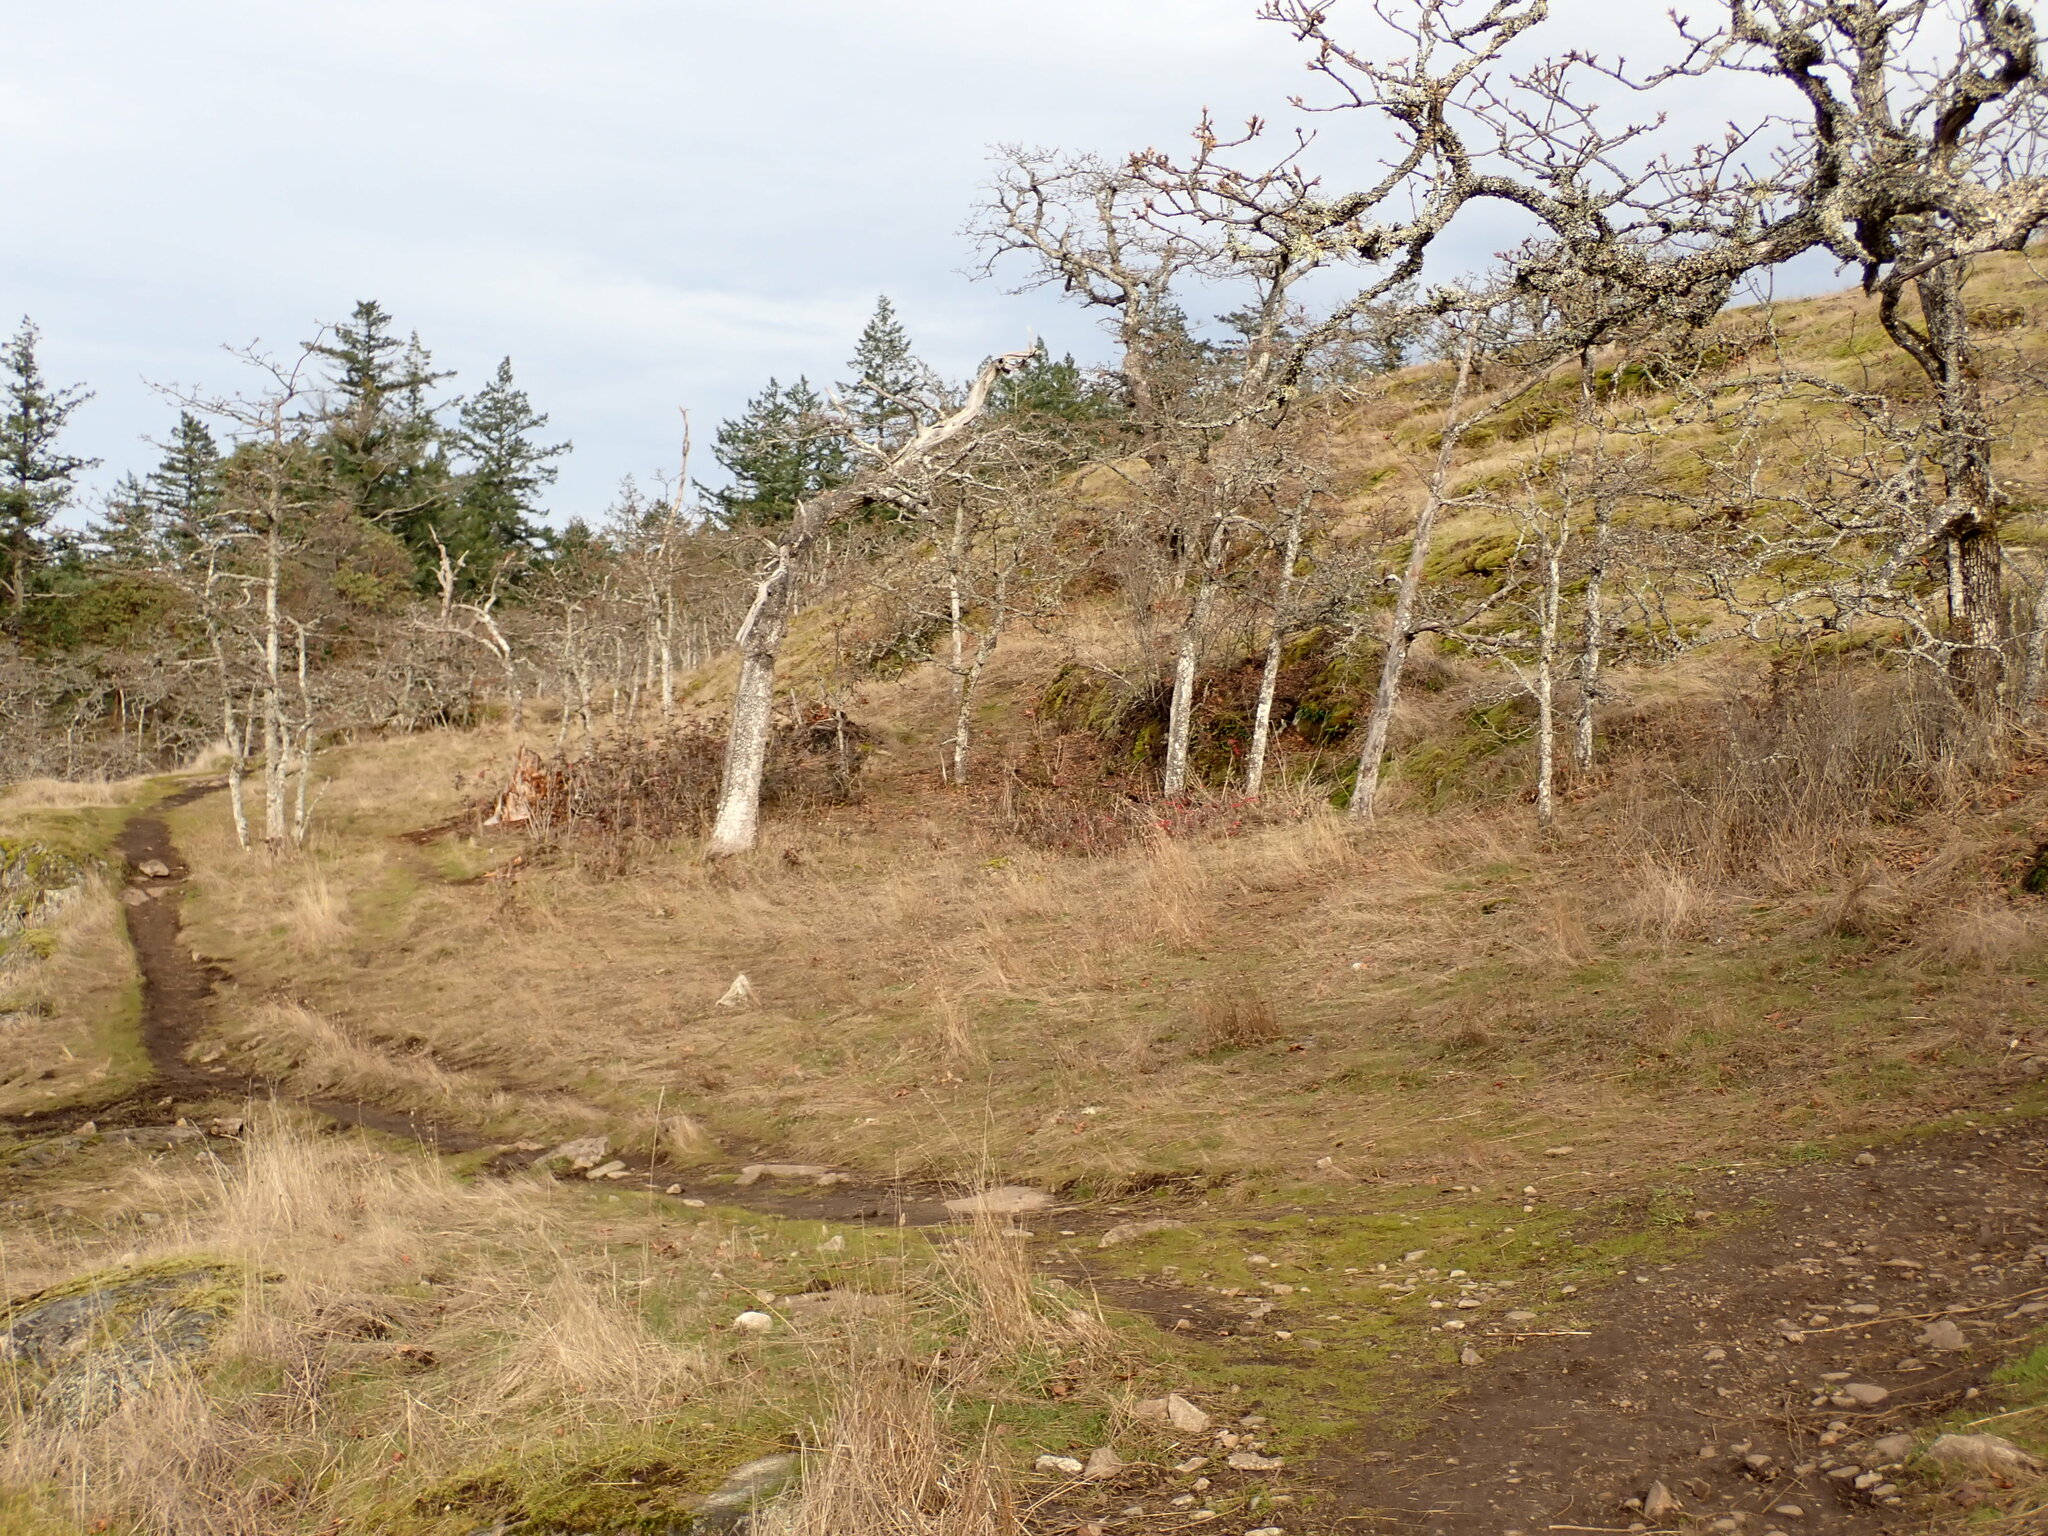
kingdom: Plantae
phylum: Tracheophyta
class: Magnoliopsida
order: Fagales
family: Fagaceae
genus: Quercus
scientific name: Quercus garryana
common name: Garry oak
